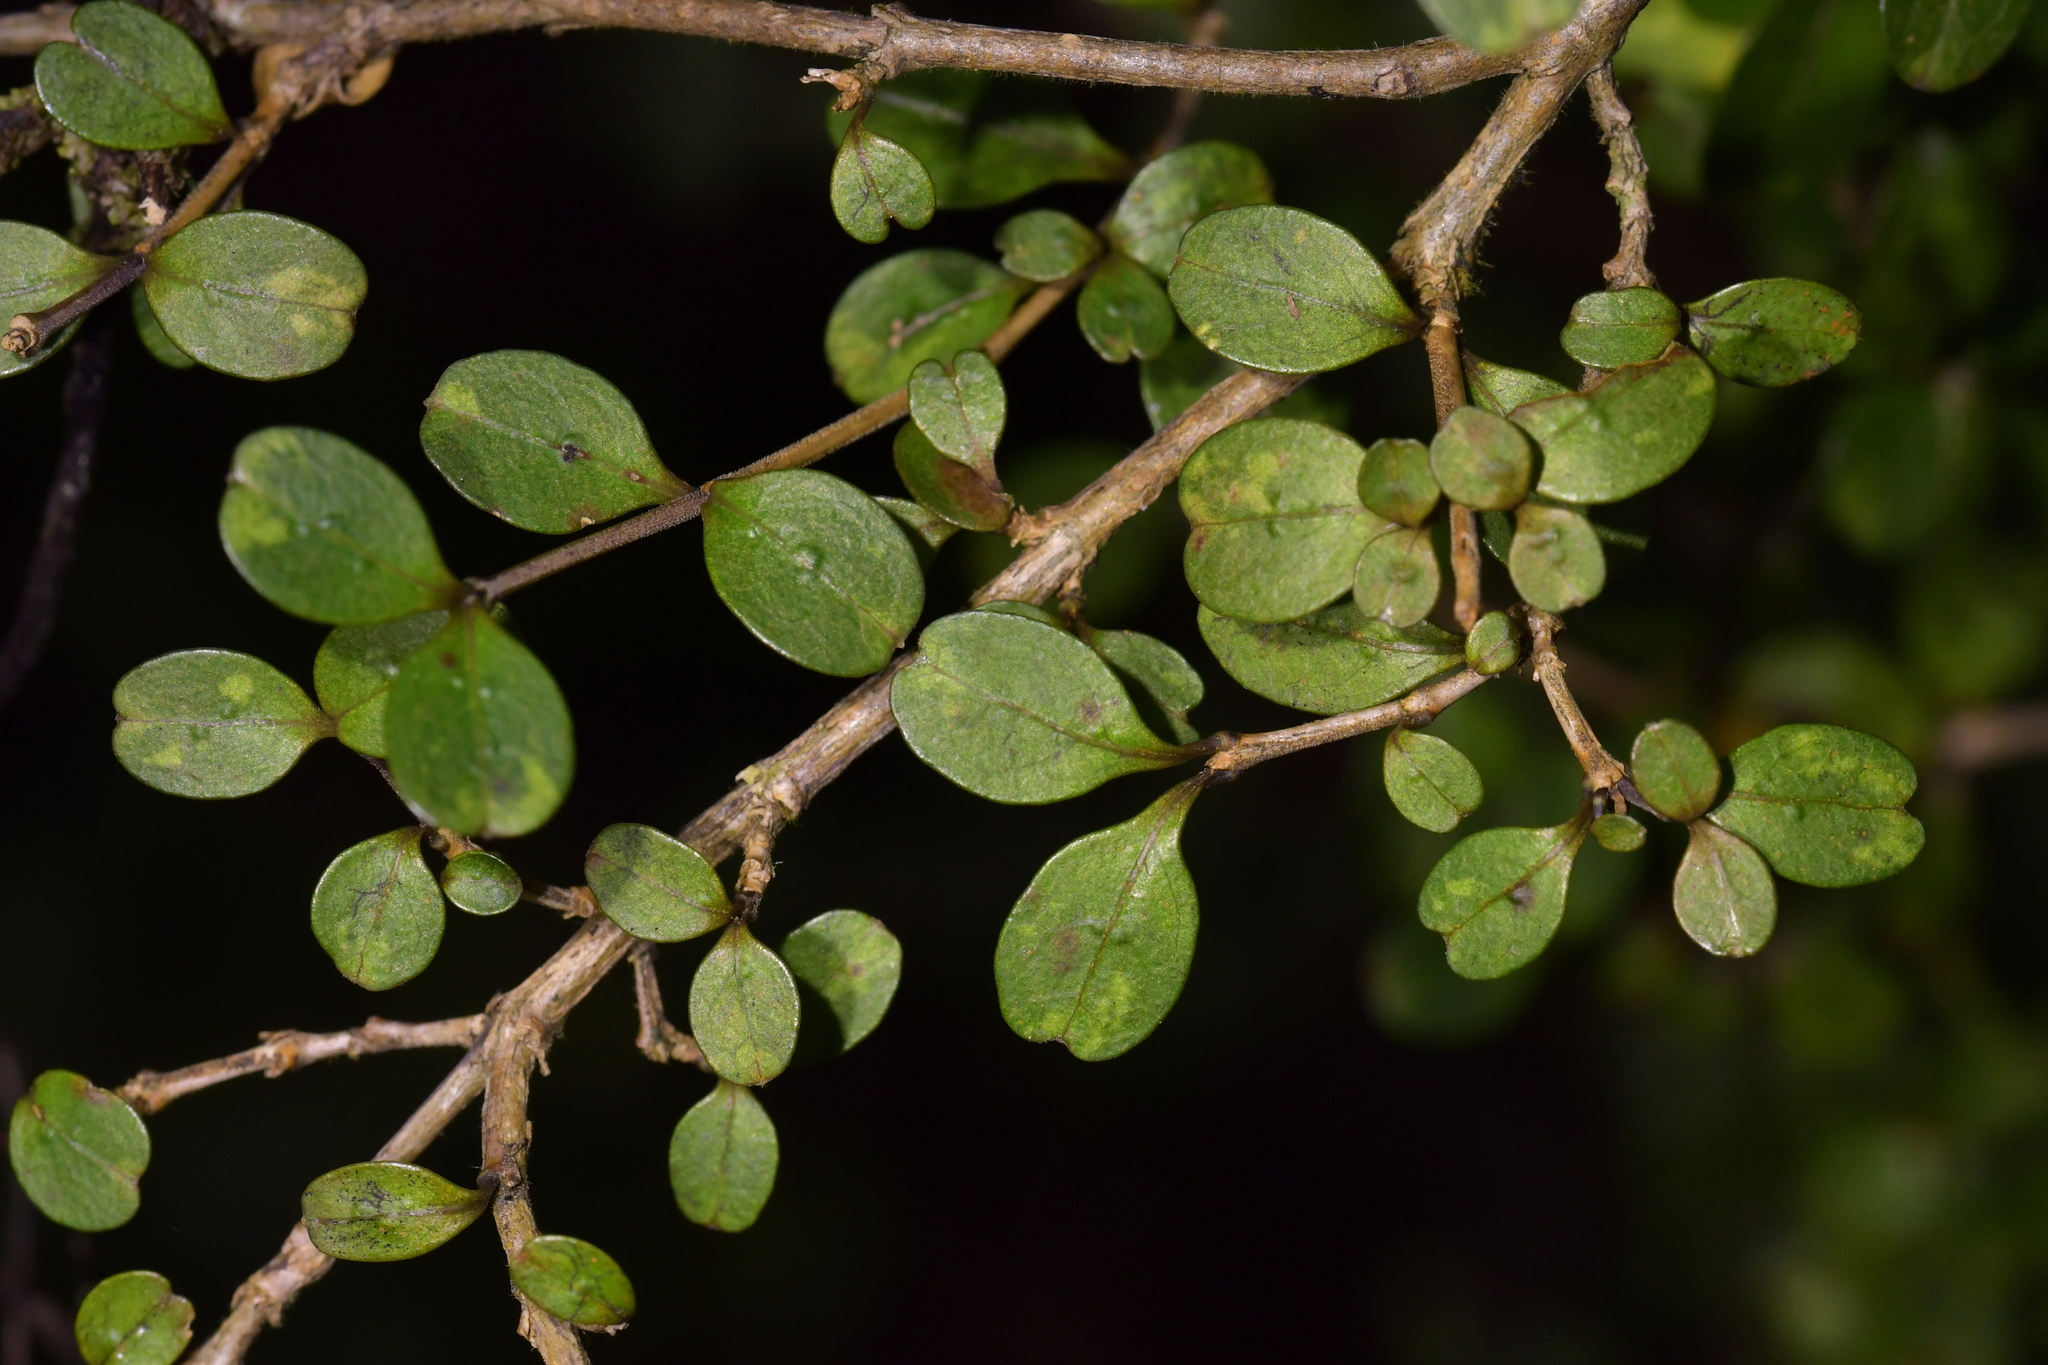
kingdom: Plantae
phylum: Tracheophyta
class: Magnoliopsida
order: Gentianales
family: Rubiaceae
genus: Coprosma
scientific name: Coprosma colensoi
